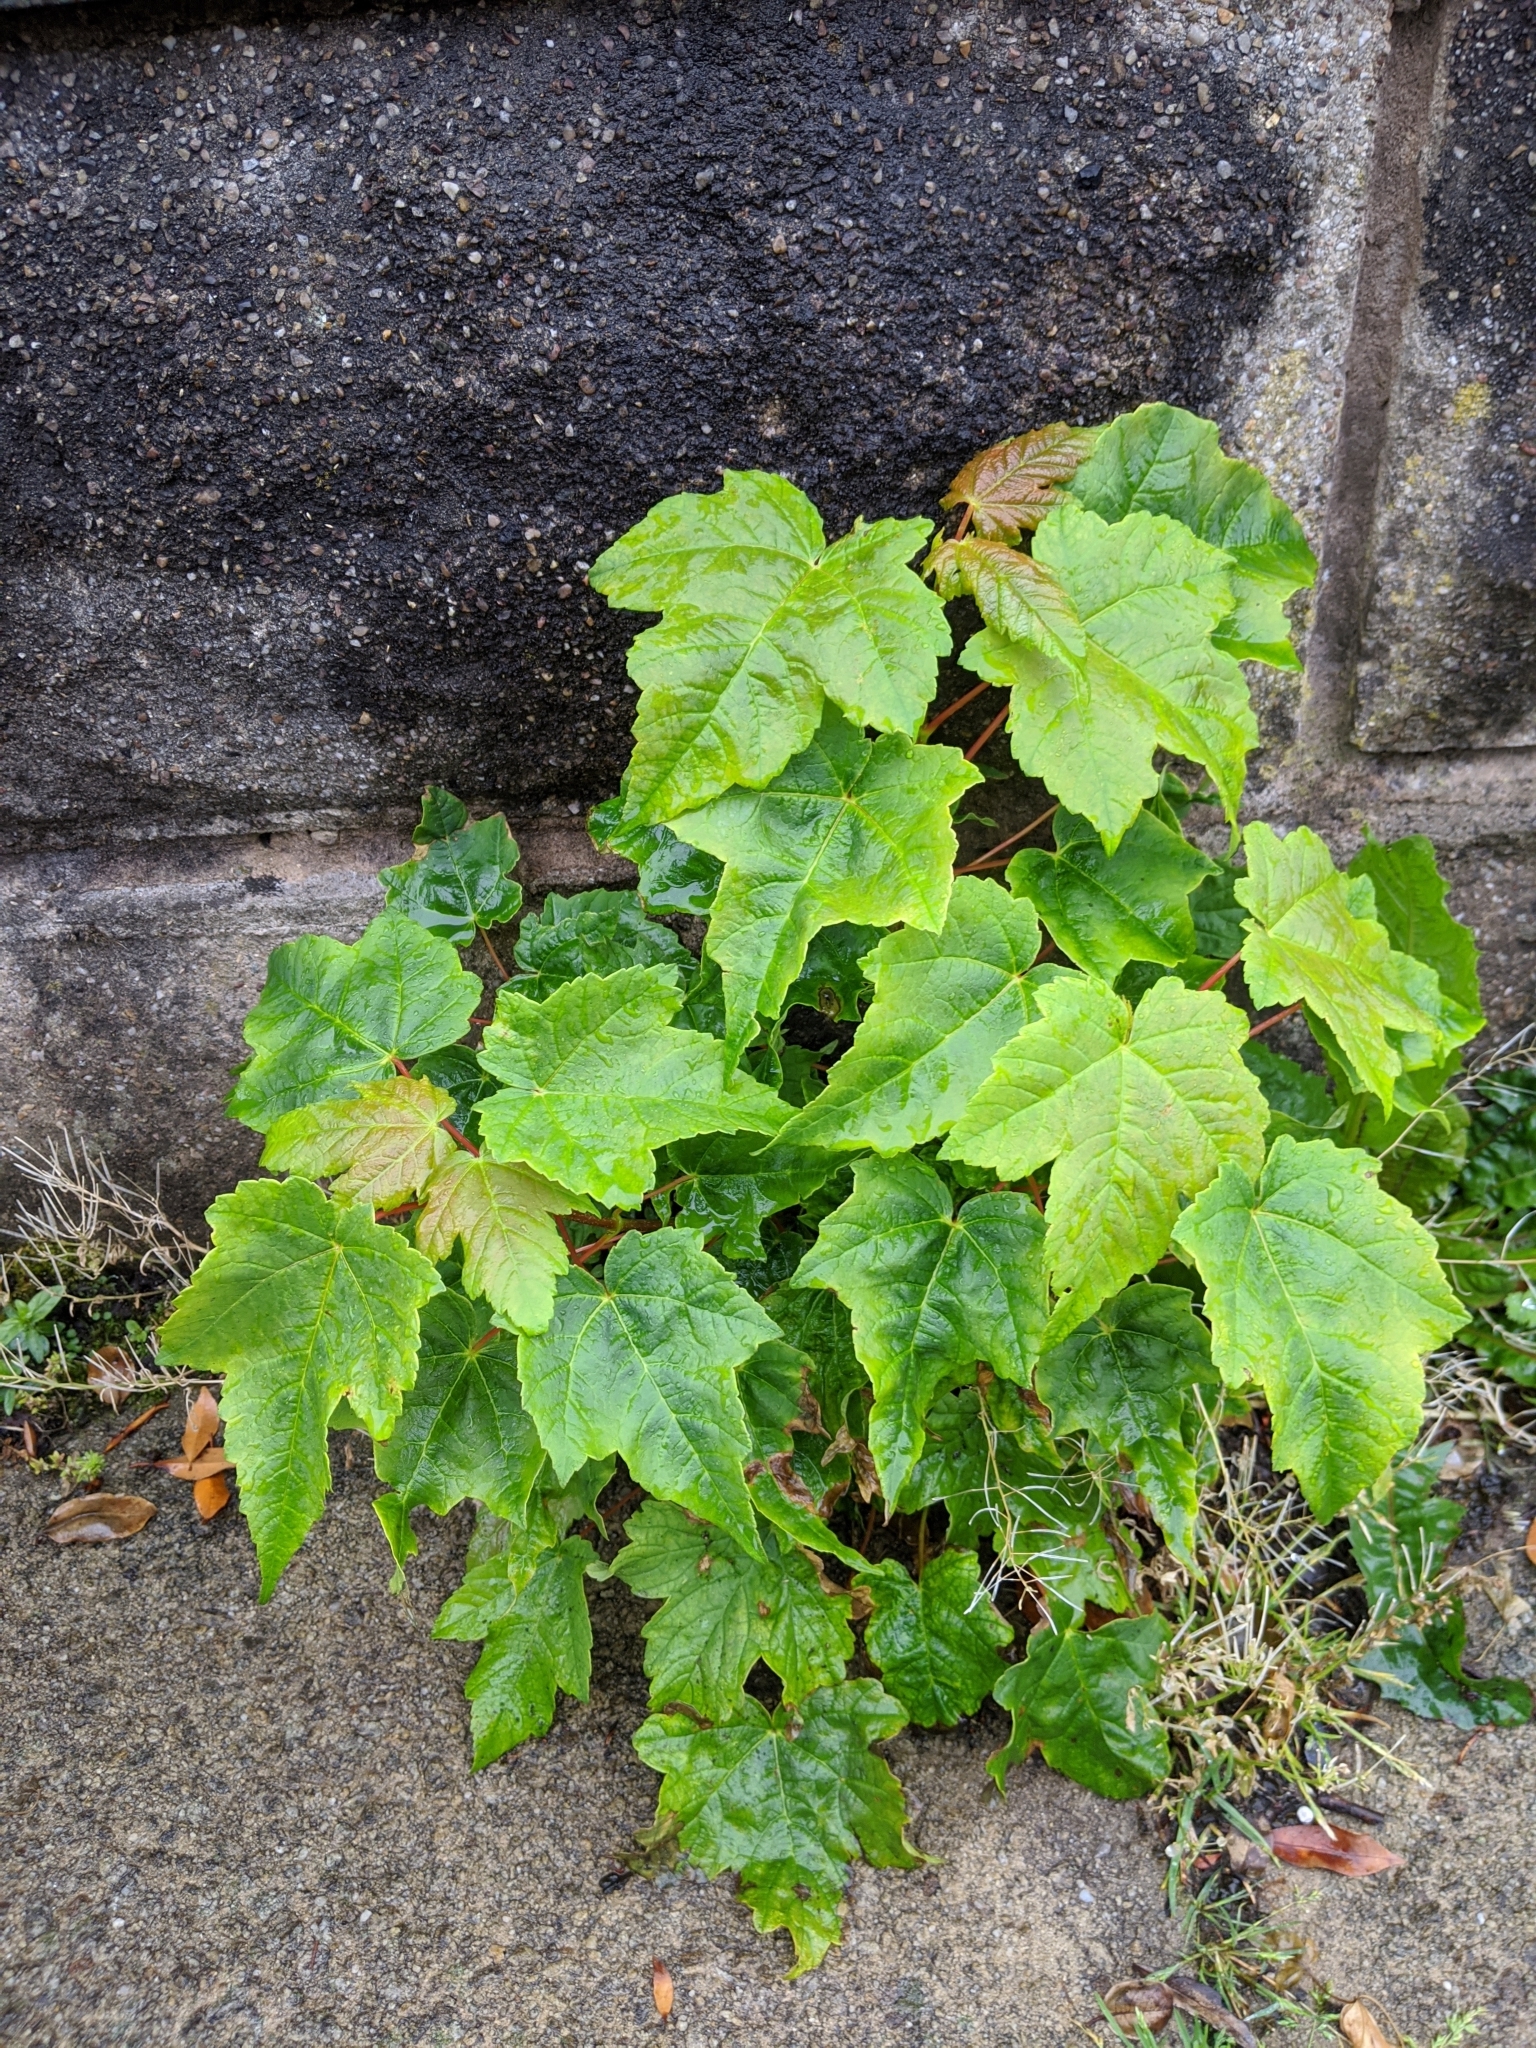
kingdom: Plantae
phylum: Tracheophyta
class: Magnoliopsida
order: Sapindales
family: Sapindaceae
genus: Acer
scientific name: Acer pseudoplatanus
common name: Sycamore
